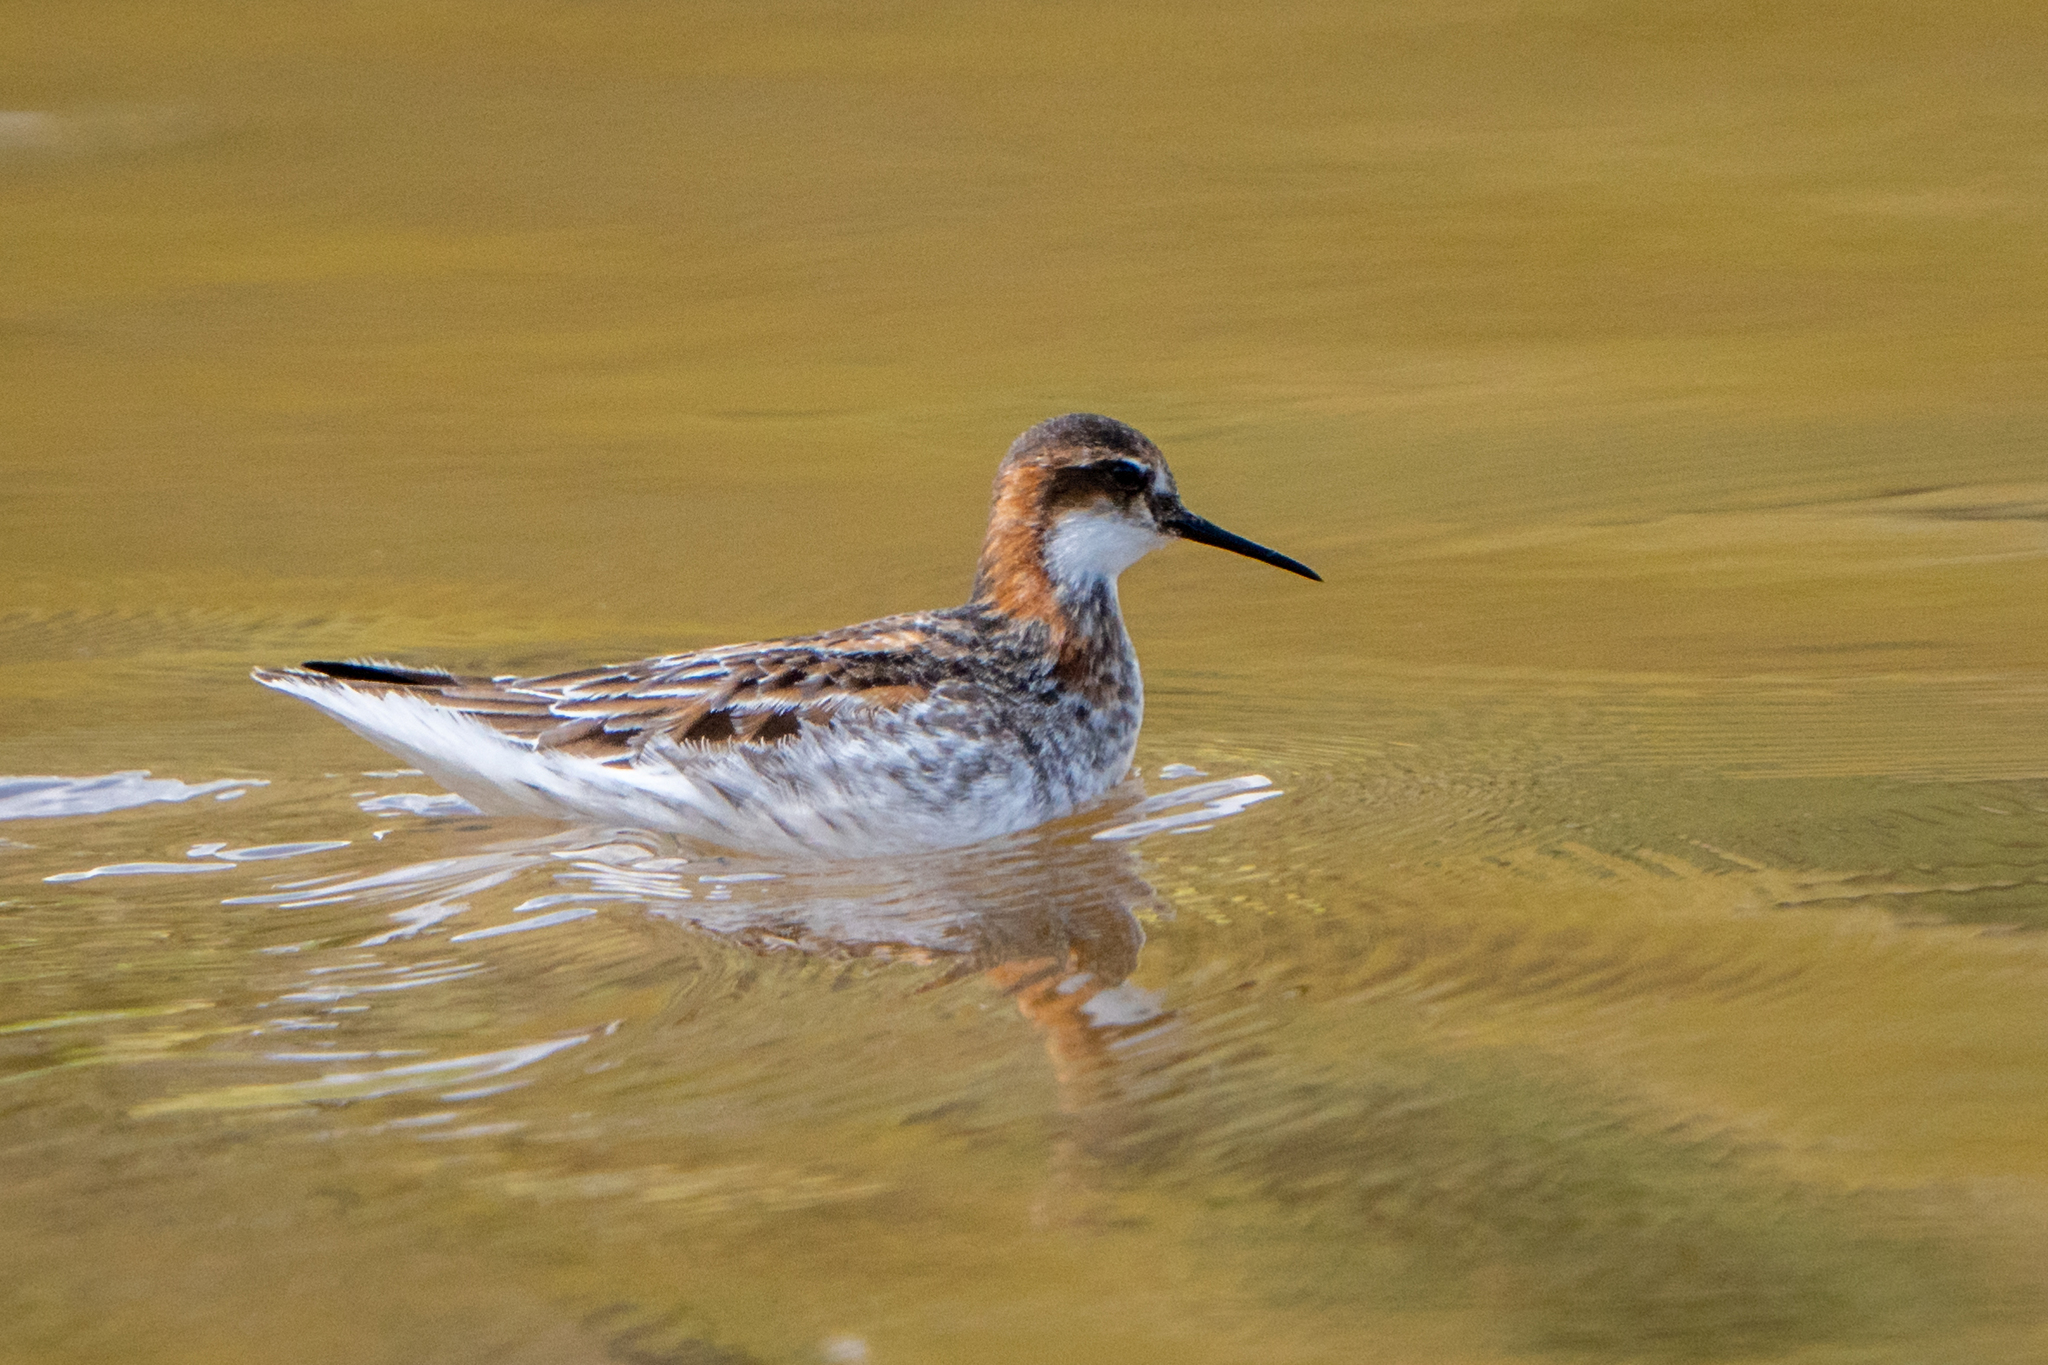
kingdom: Animalia
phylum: Chordata
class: Aves
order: Charadriiformes
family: Scolopacidae
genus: Phalaropus
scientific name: Phalaropus lobatus
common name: Red-necked phalarope
